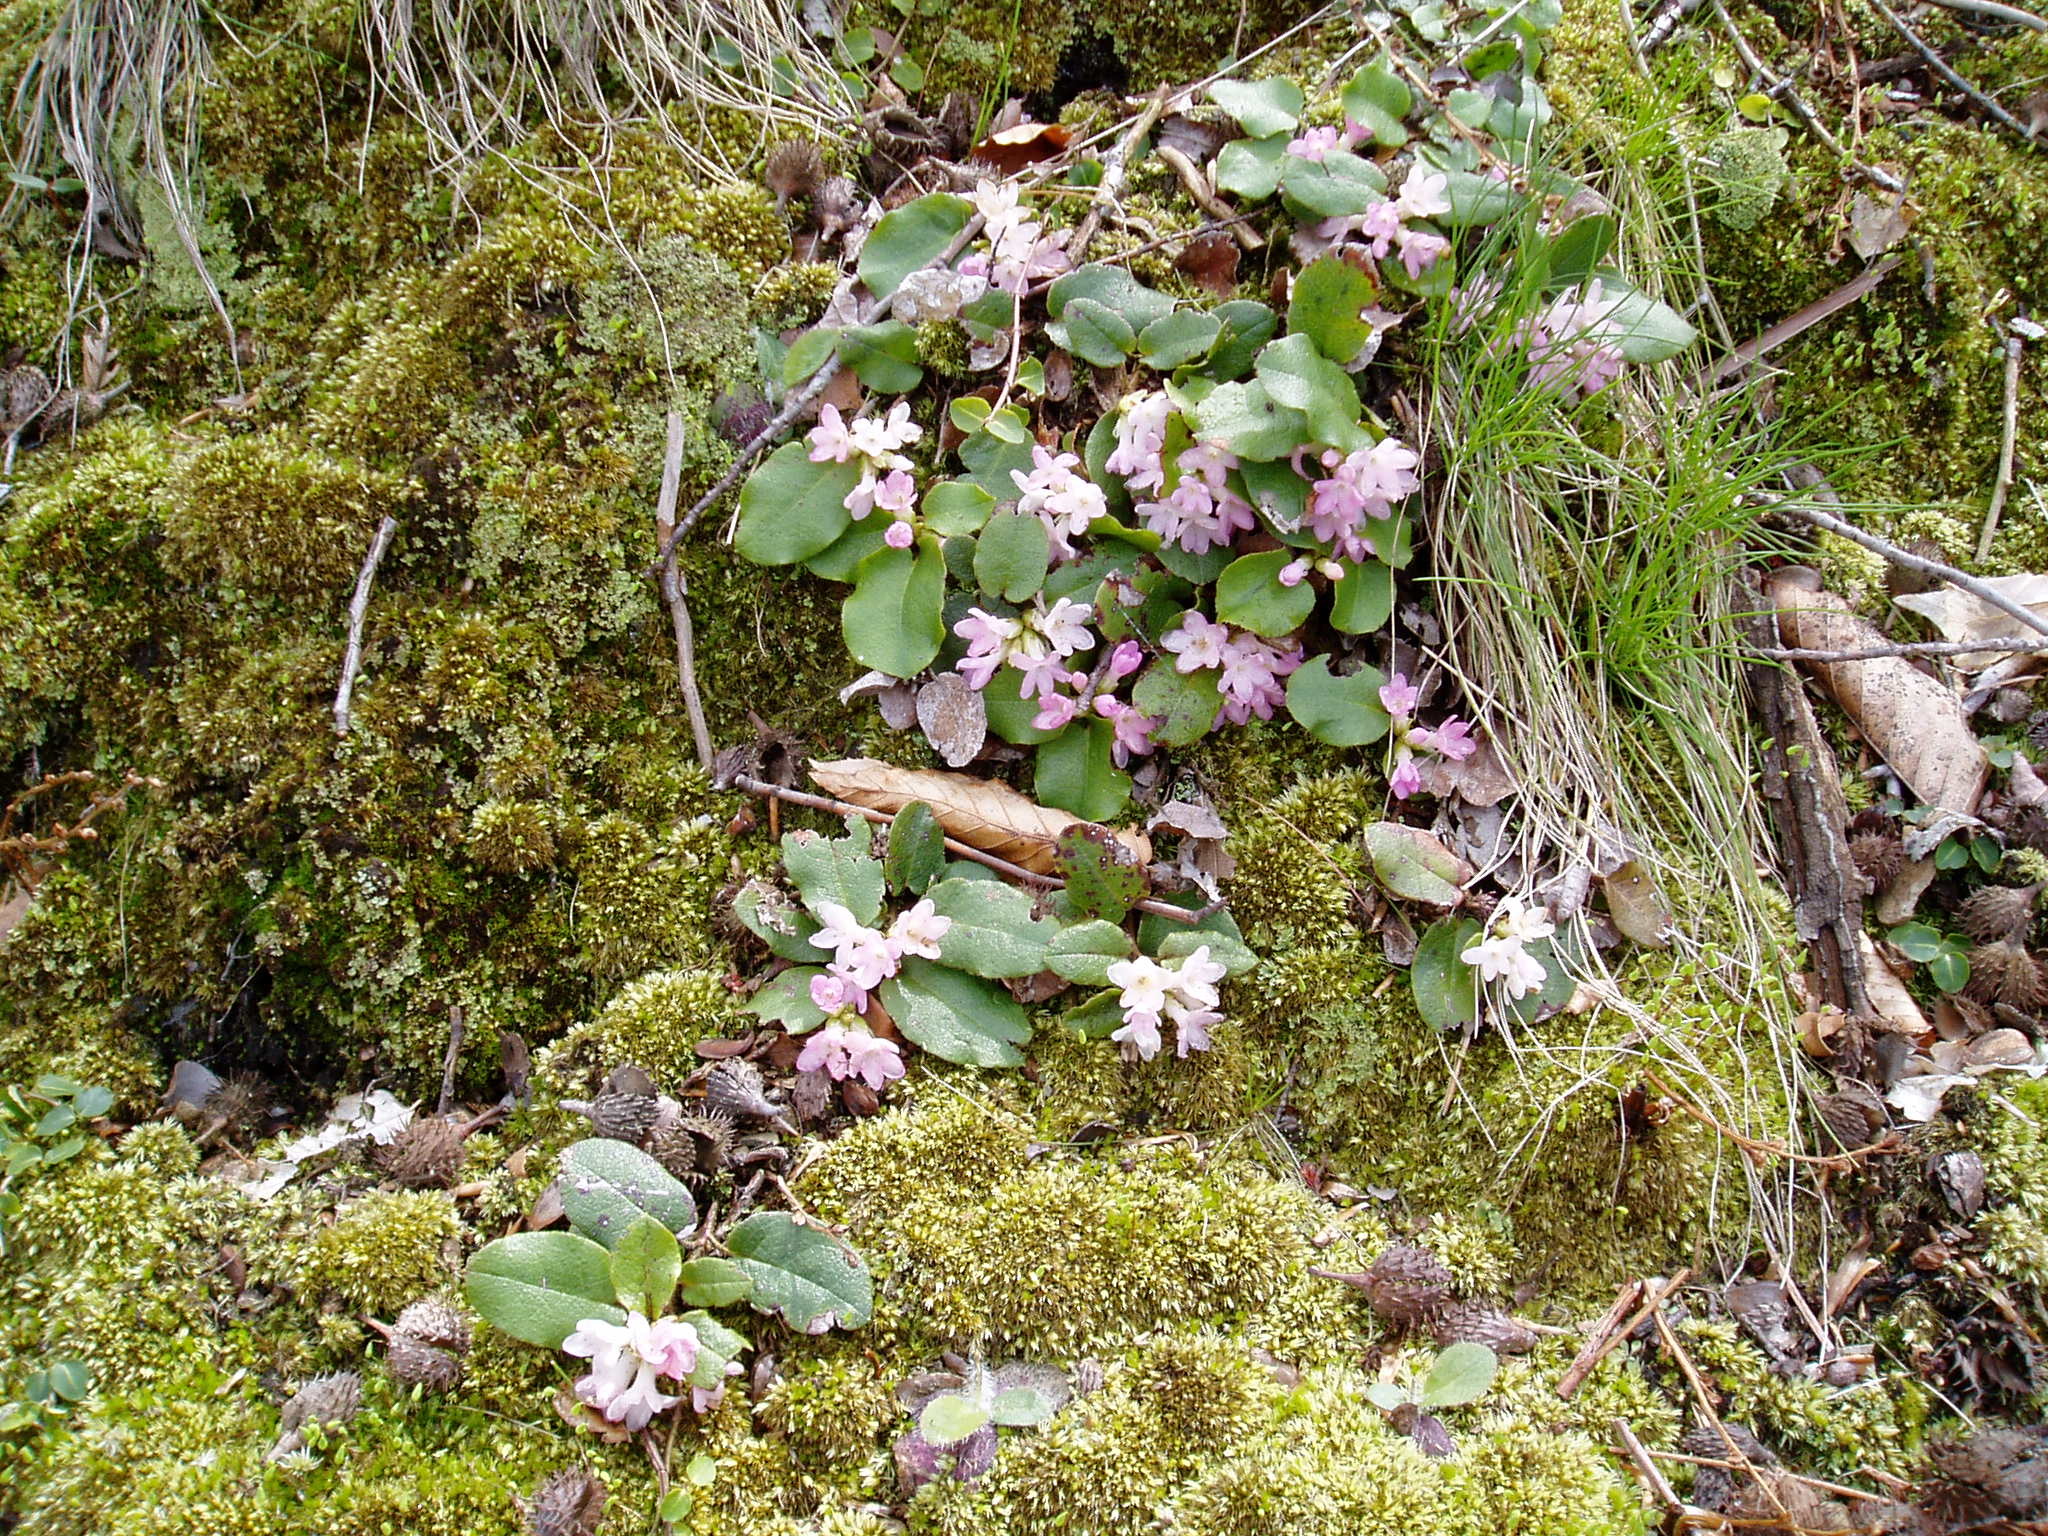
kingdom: Plantae
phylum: Tracheophyta
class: Magnoliopsida
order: Ericales
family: Ericaceae
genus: Epigaea
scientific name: Epigaea repens
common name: Gravelroot
